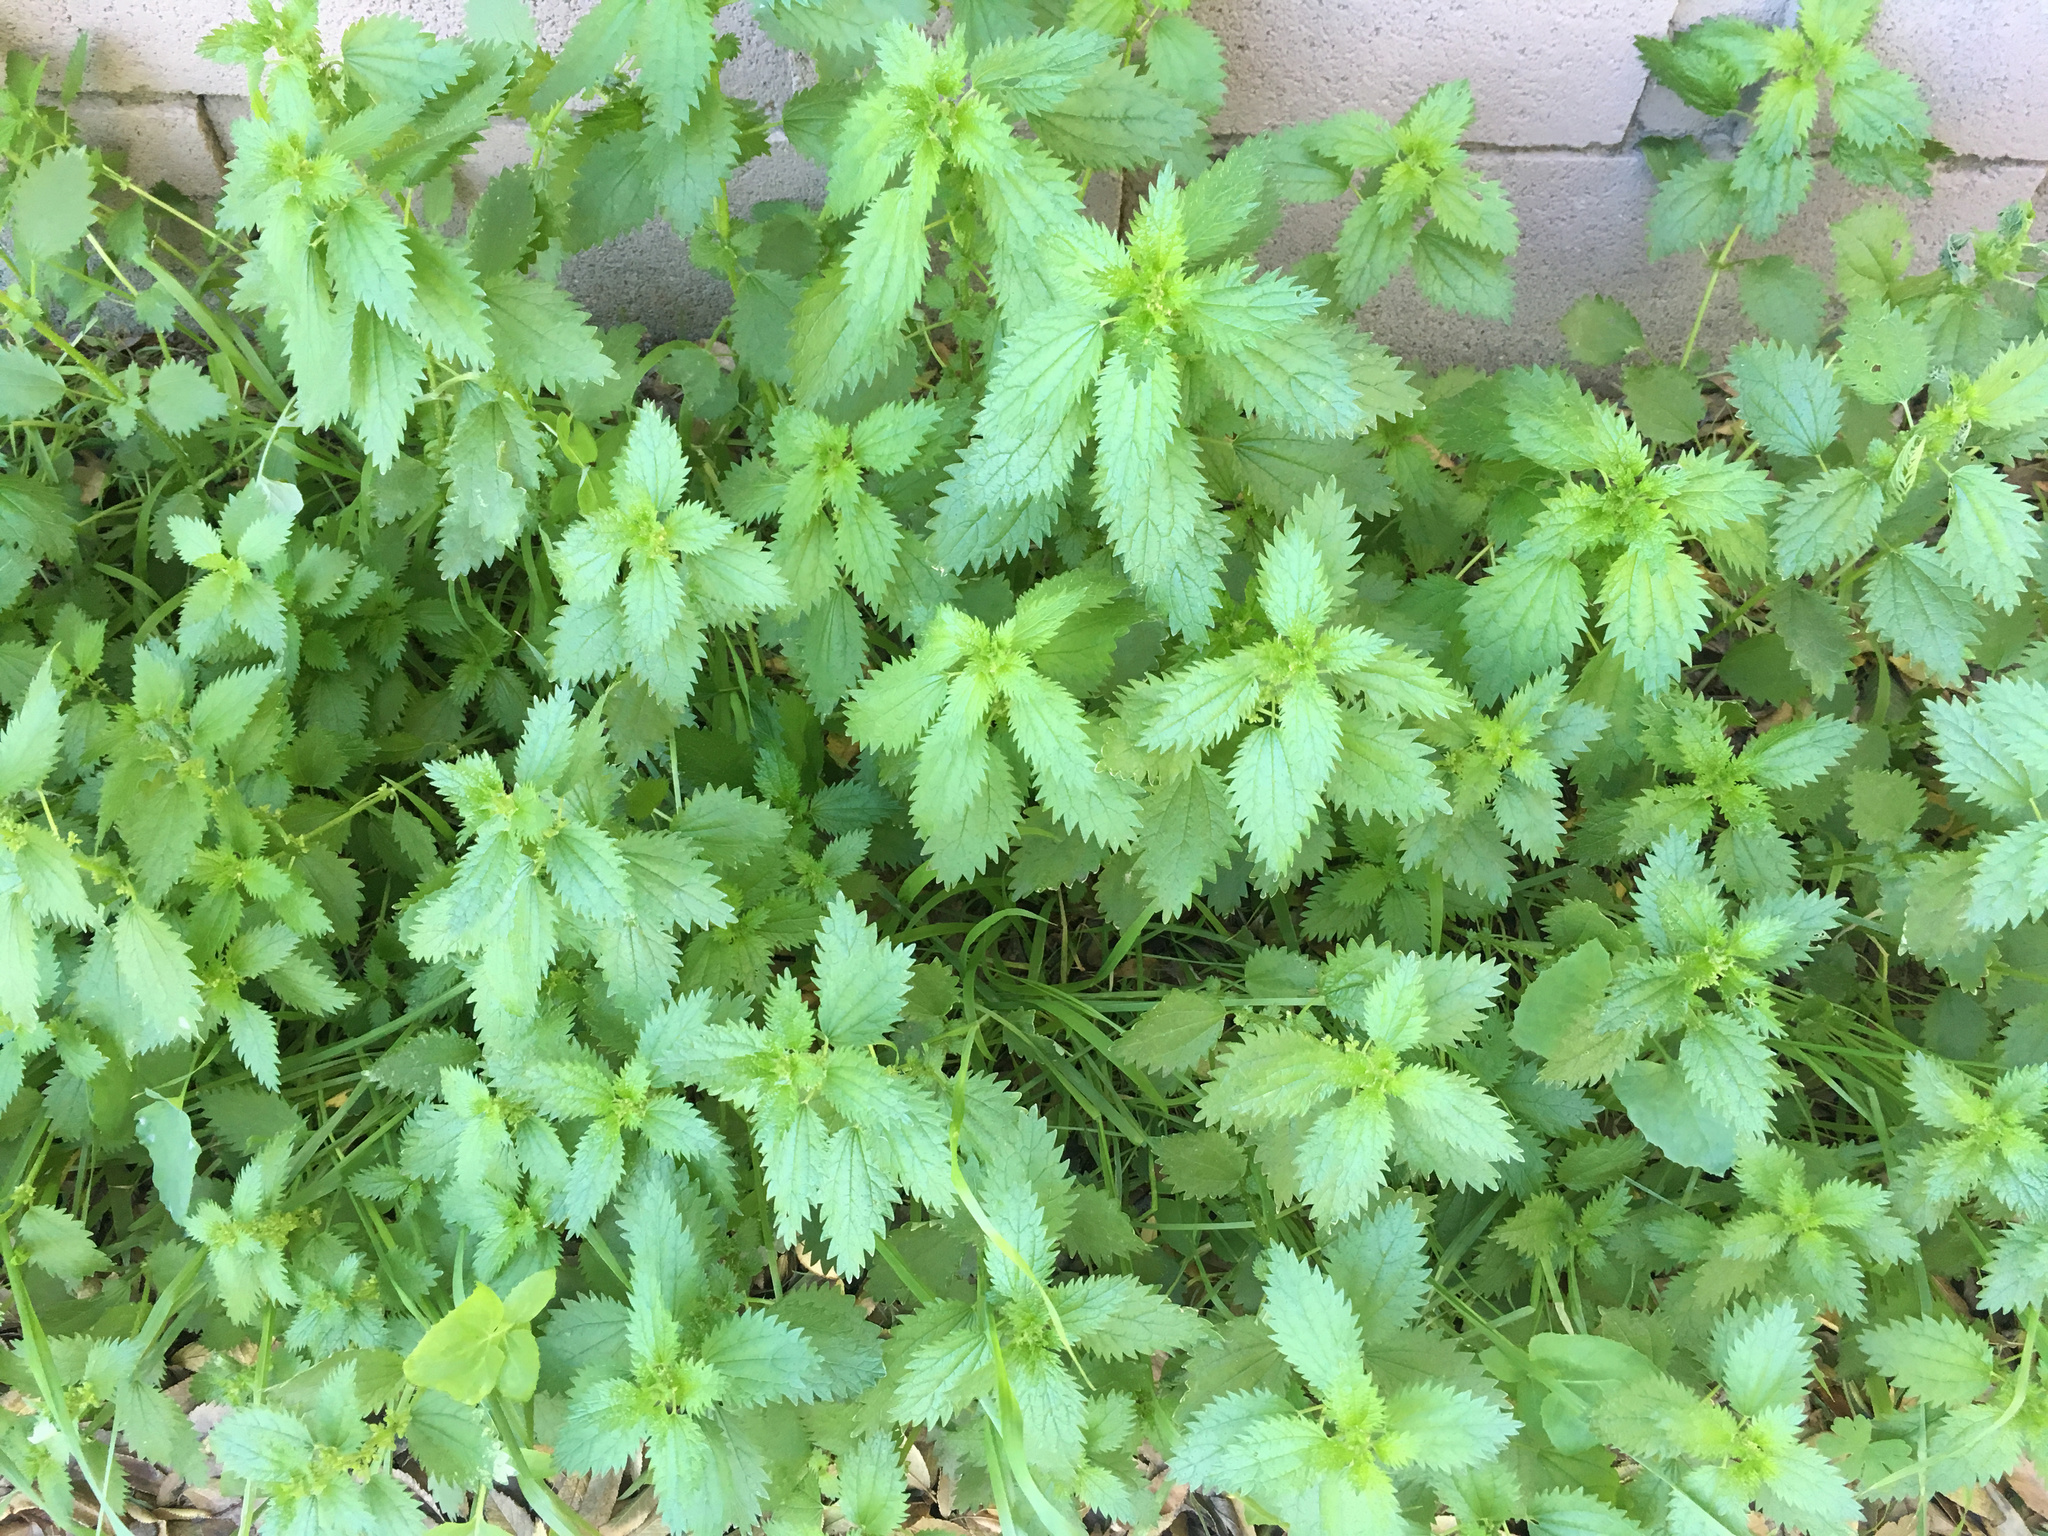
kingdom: Plantae
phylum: Tracheophyta
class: Magnoliopsida
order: Rosales
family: Urticaceae
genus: Urtica
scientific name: Urtica urens
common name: Dwarf nettle
